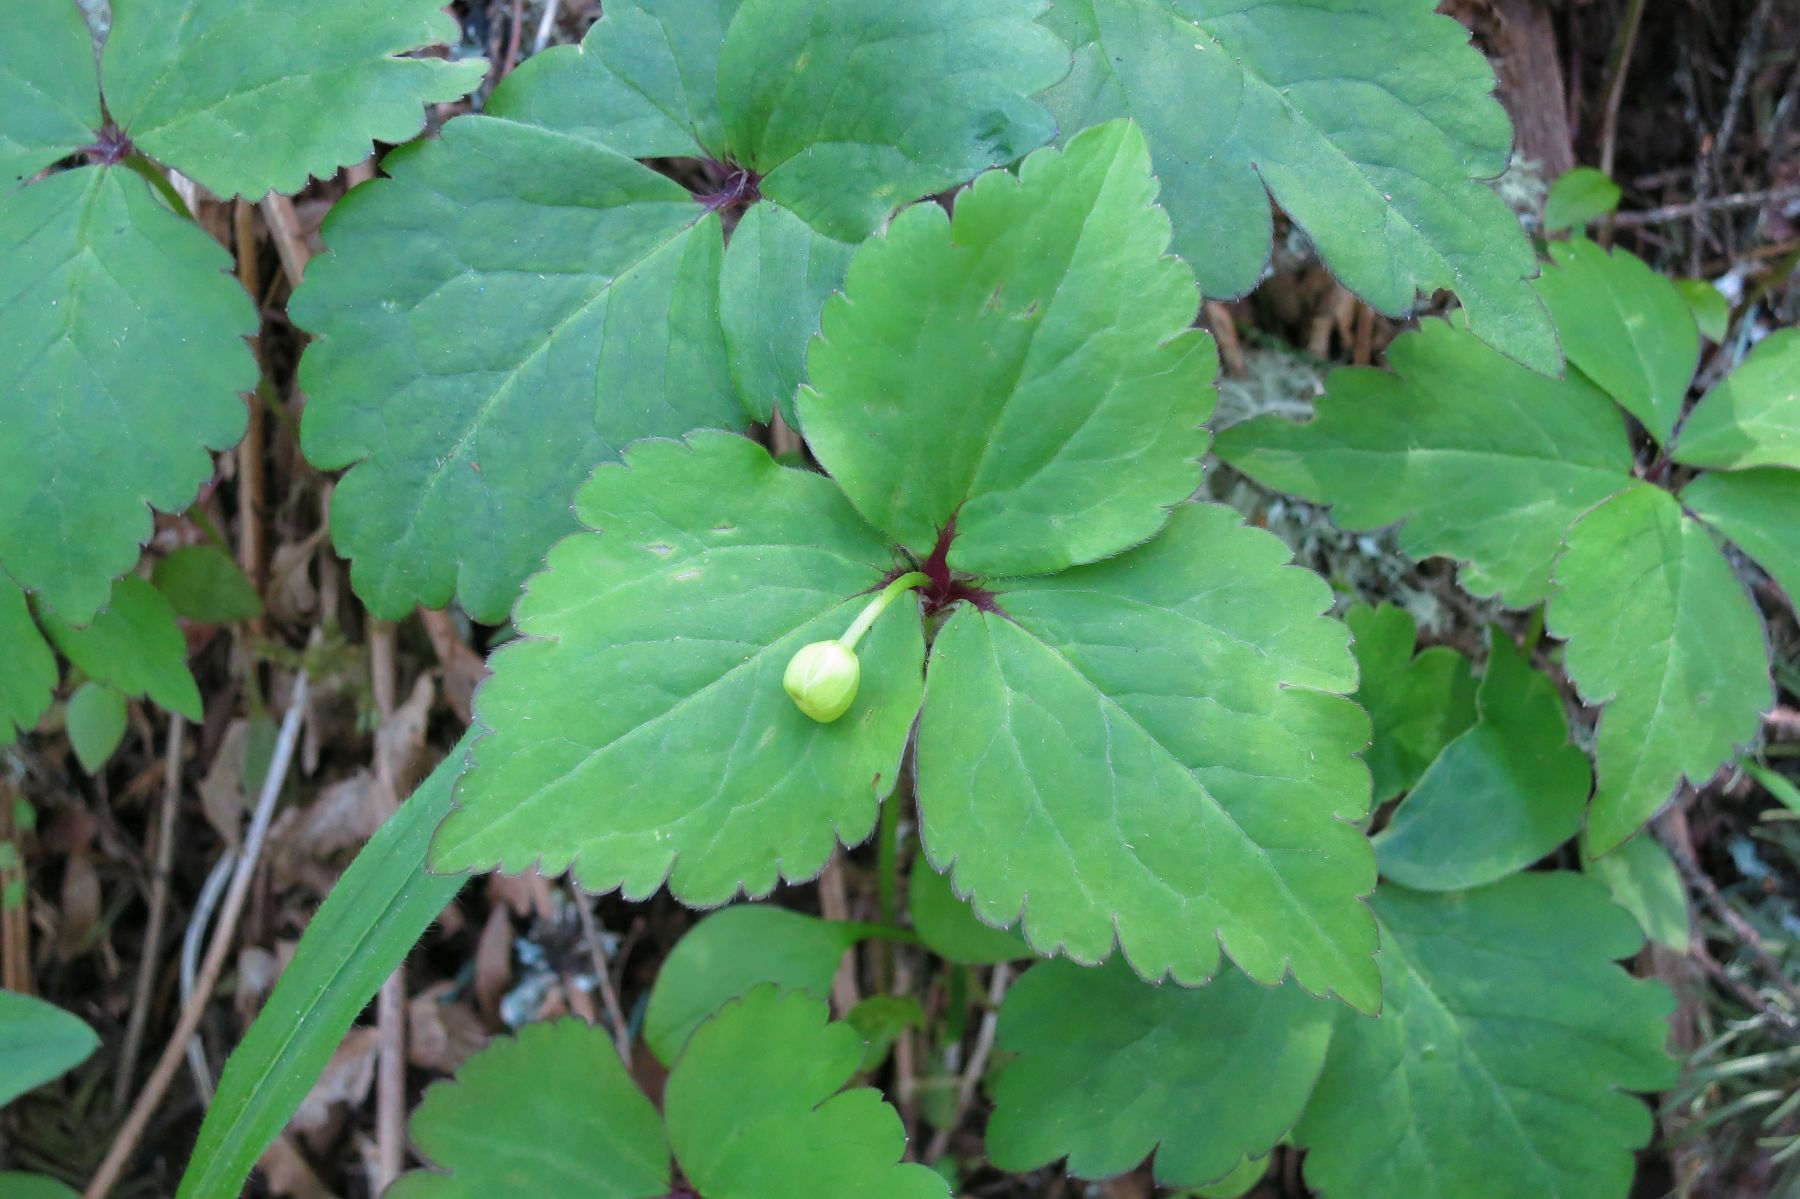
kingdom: Plantae
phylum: Tracheophyta
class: Magnoliopsida
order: Ranunculales
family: Ranunculaceae
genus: Anemonastrum
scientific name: Anemonastrum deltoideum
